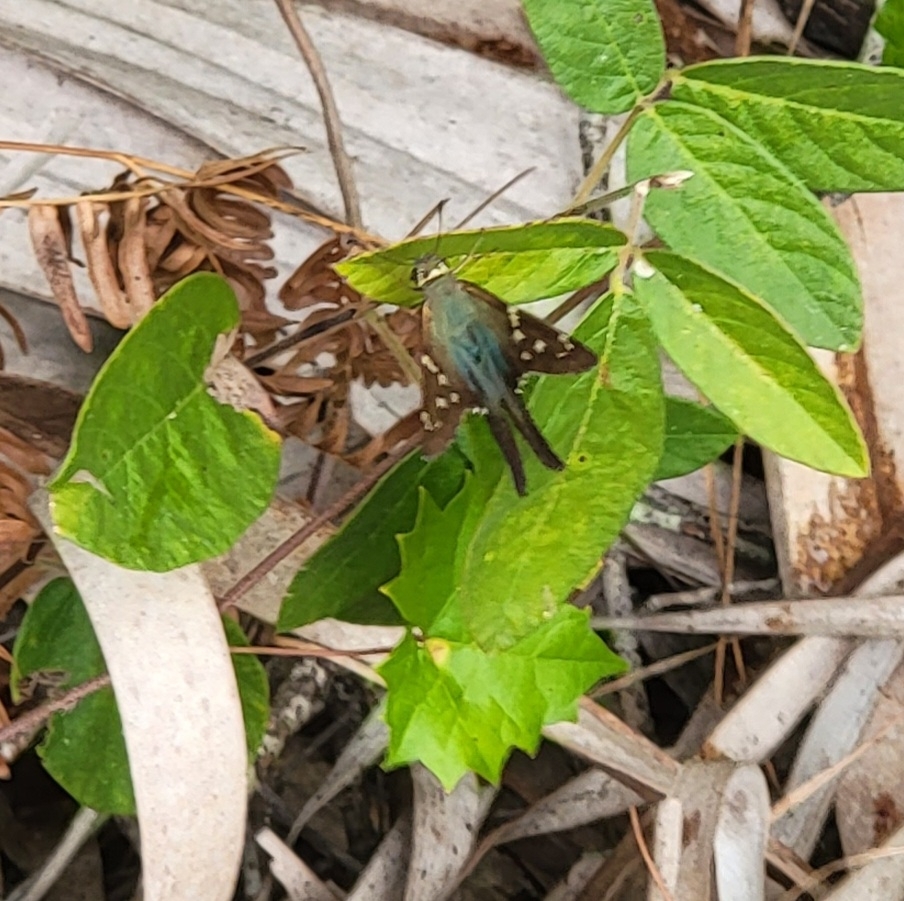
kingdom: Animalia
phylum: Arthropoda
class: Insecta
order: Lepidoptera
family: Hesperiidae
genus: Urbanus
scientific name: Urbanus proteus
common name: Long-tailed skipper
